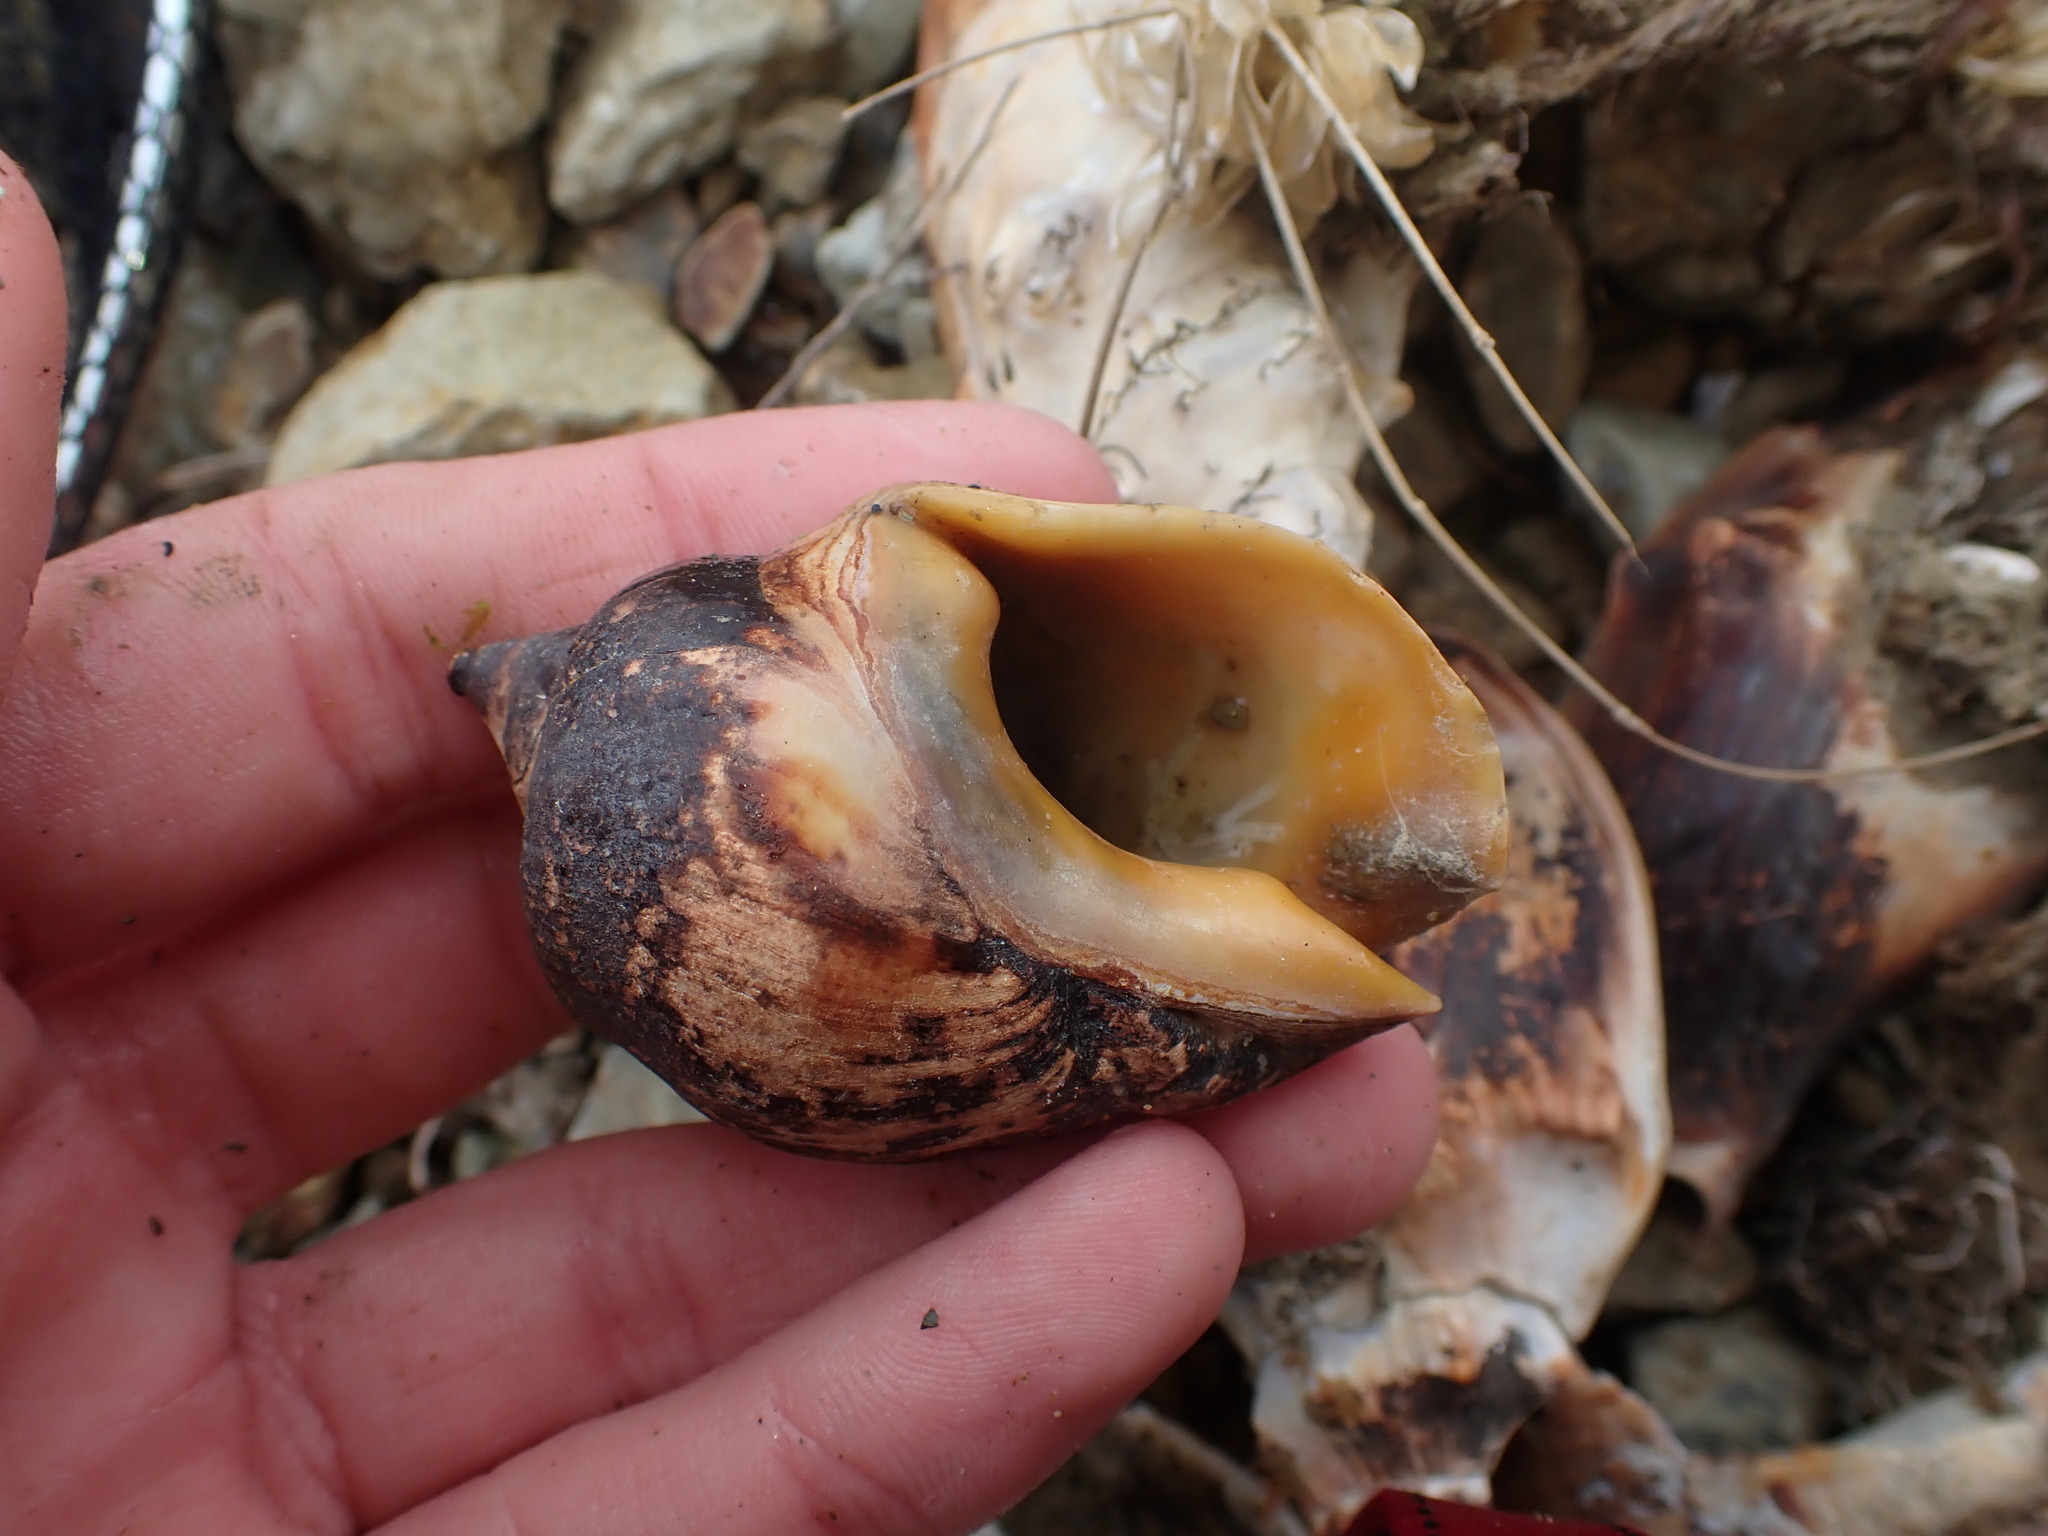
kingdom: Animalia
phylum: Mollusca
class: Gastropoda
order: Neogastropoda
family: Cominellidae
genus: Cominella
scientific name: Cominella adspersa
